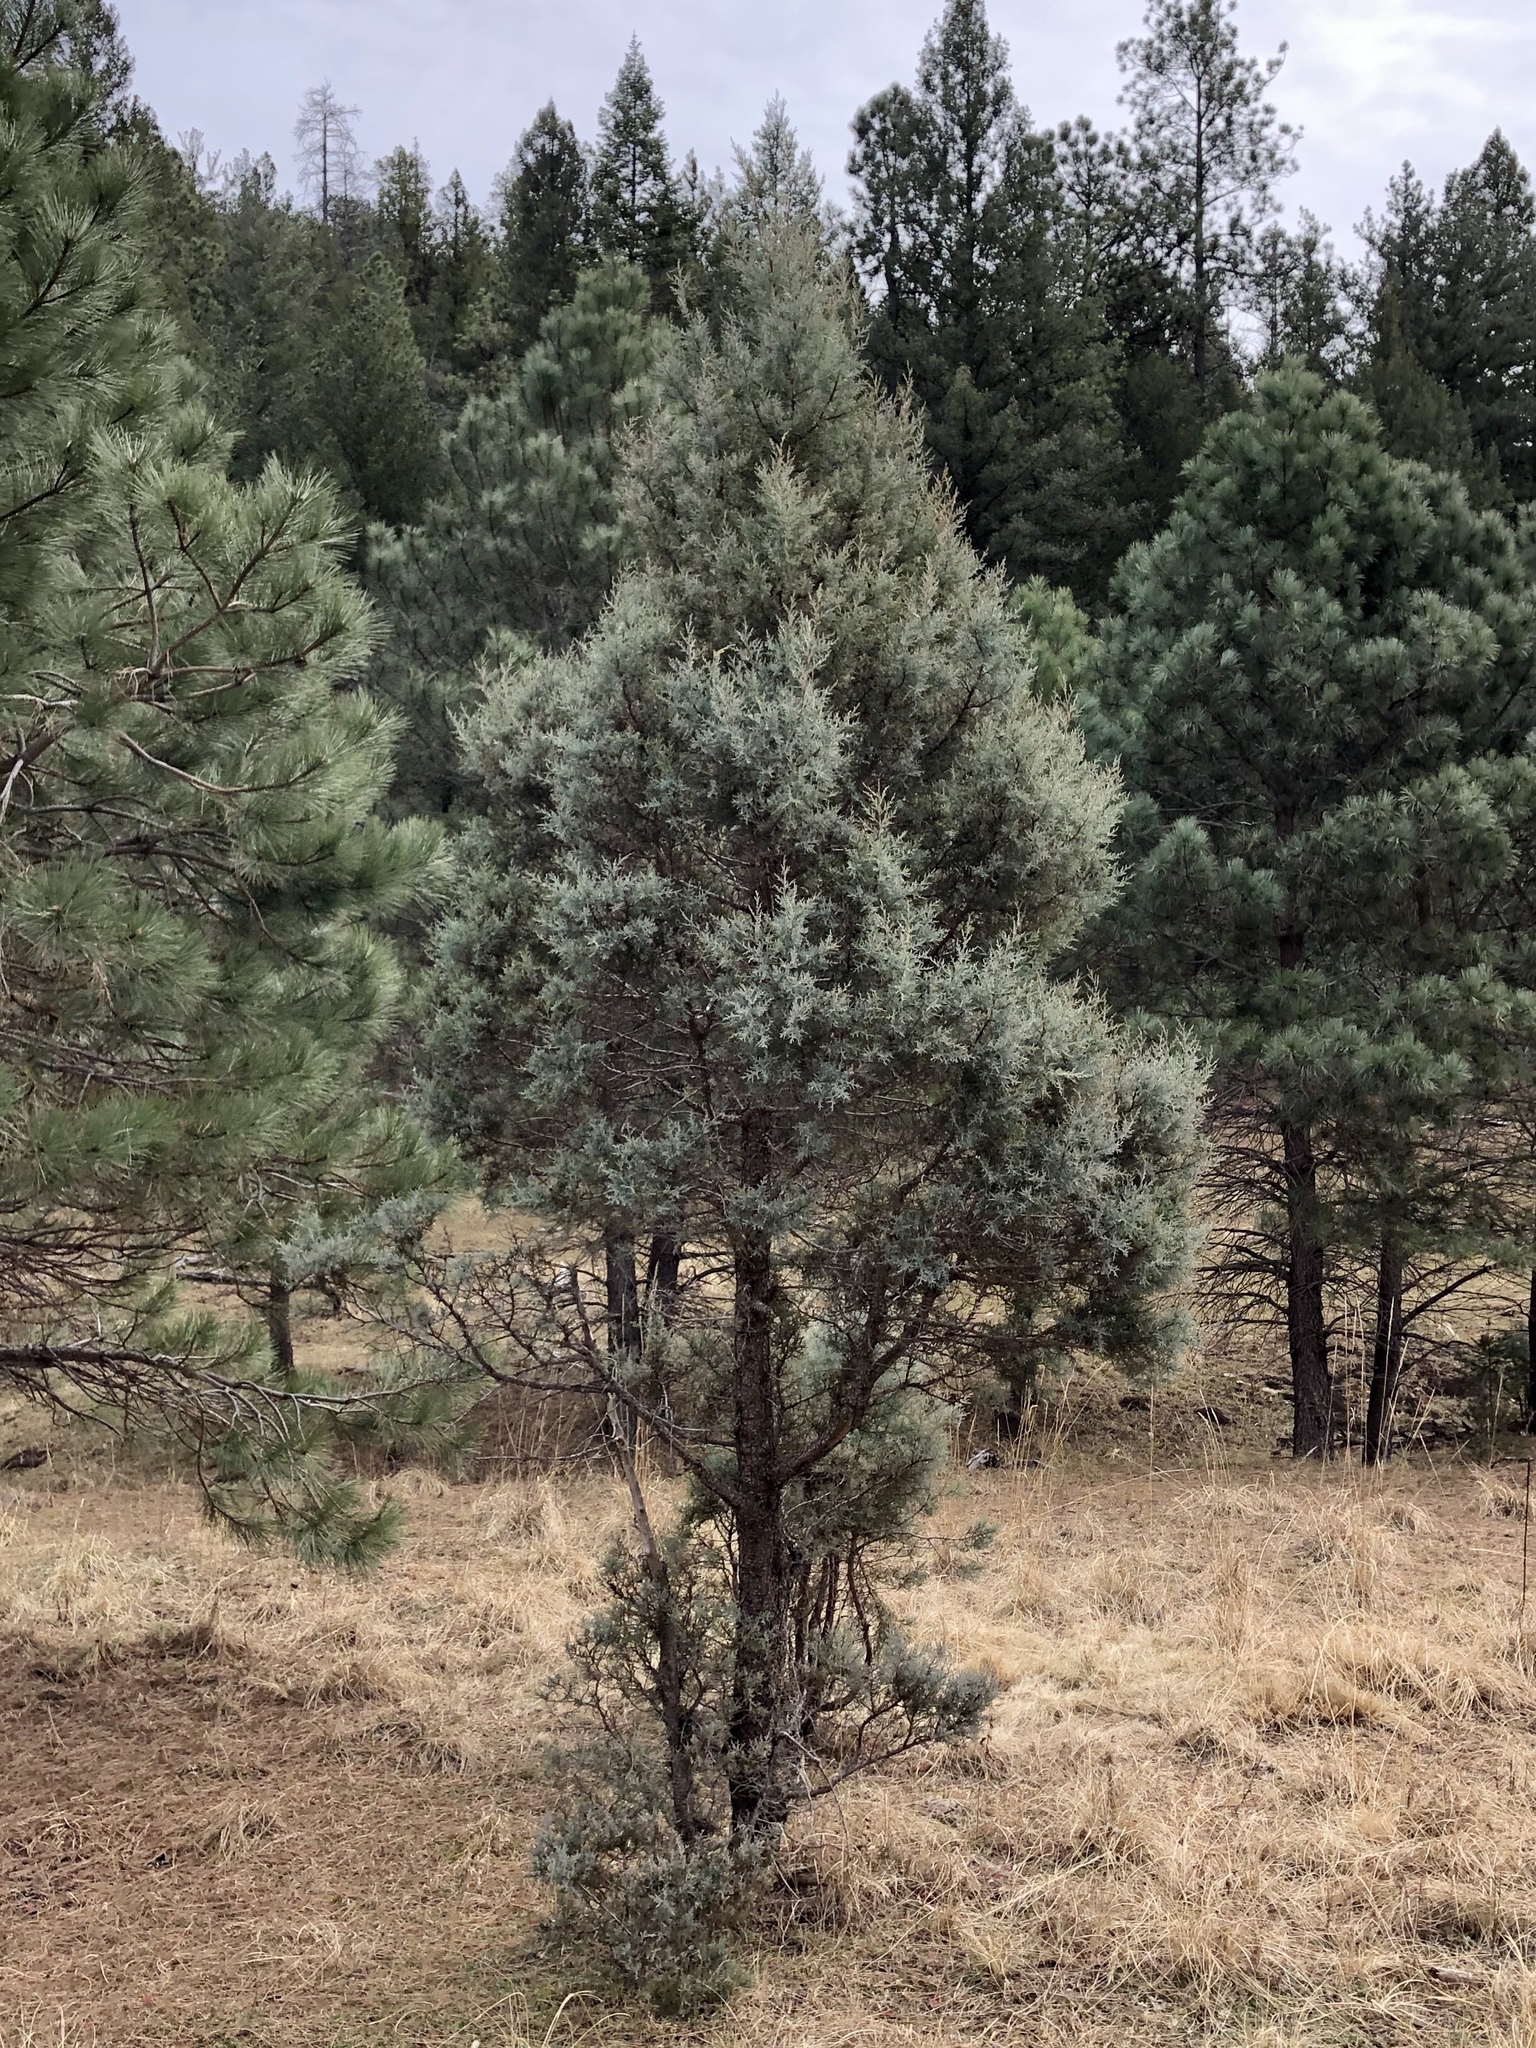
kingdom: Plantae
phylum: Tracheophyta
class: Pinopsida
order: Pinales
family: Cupressaceae
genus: Juniperus
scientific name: Juniperus deppeana
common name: Alligator juniper
